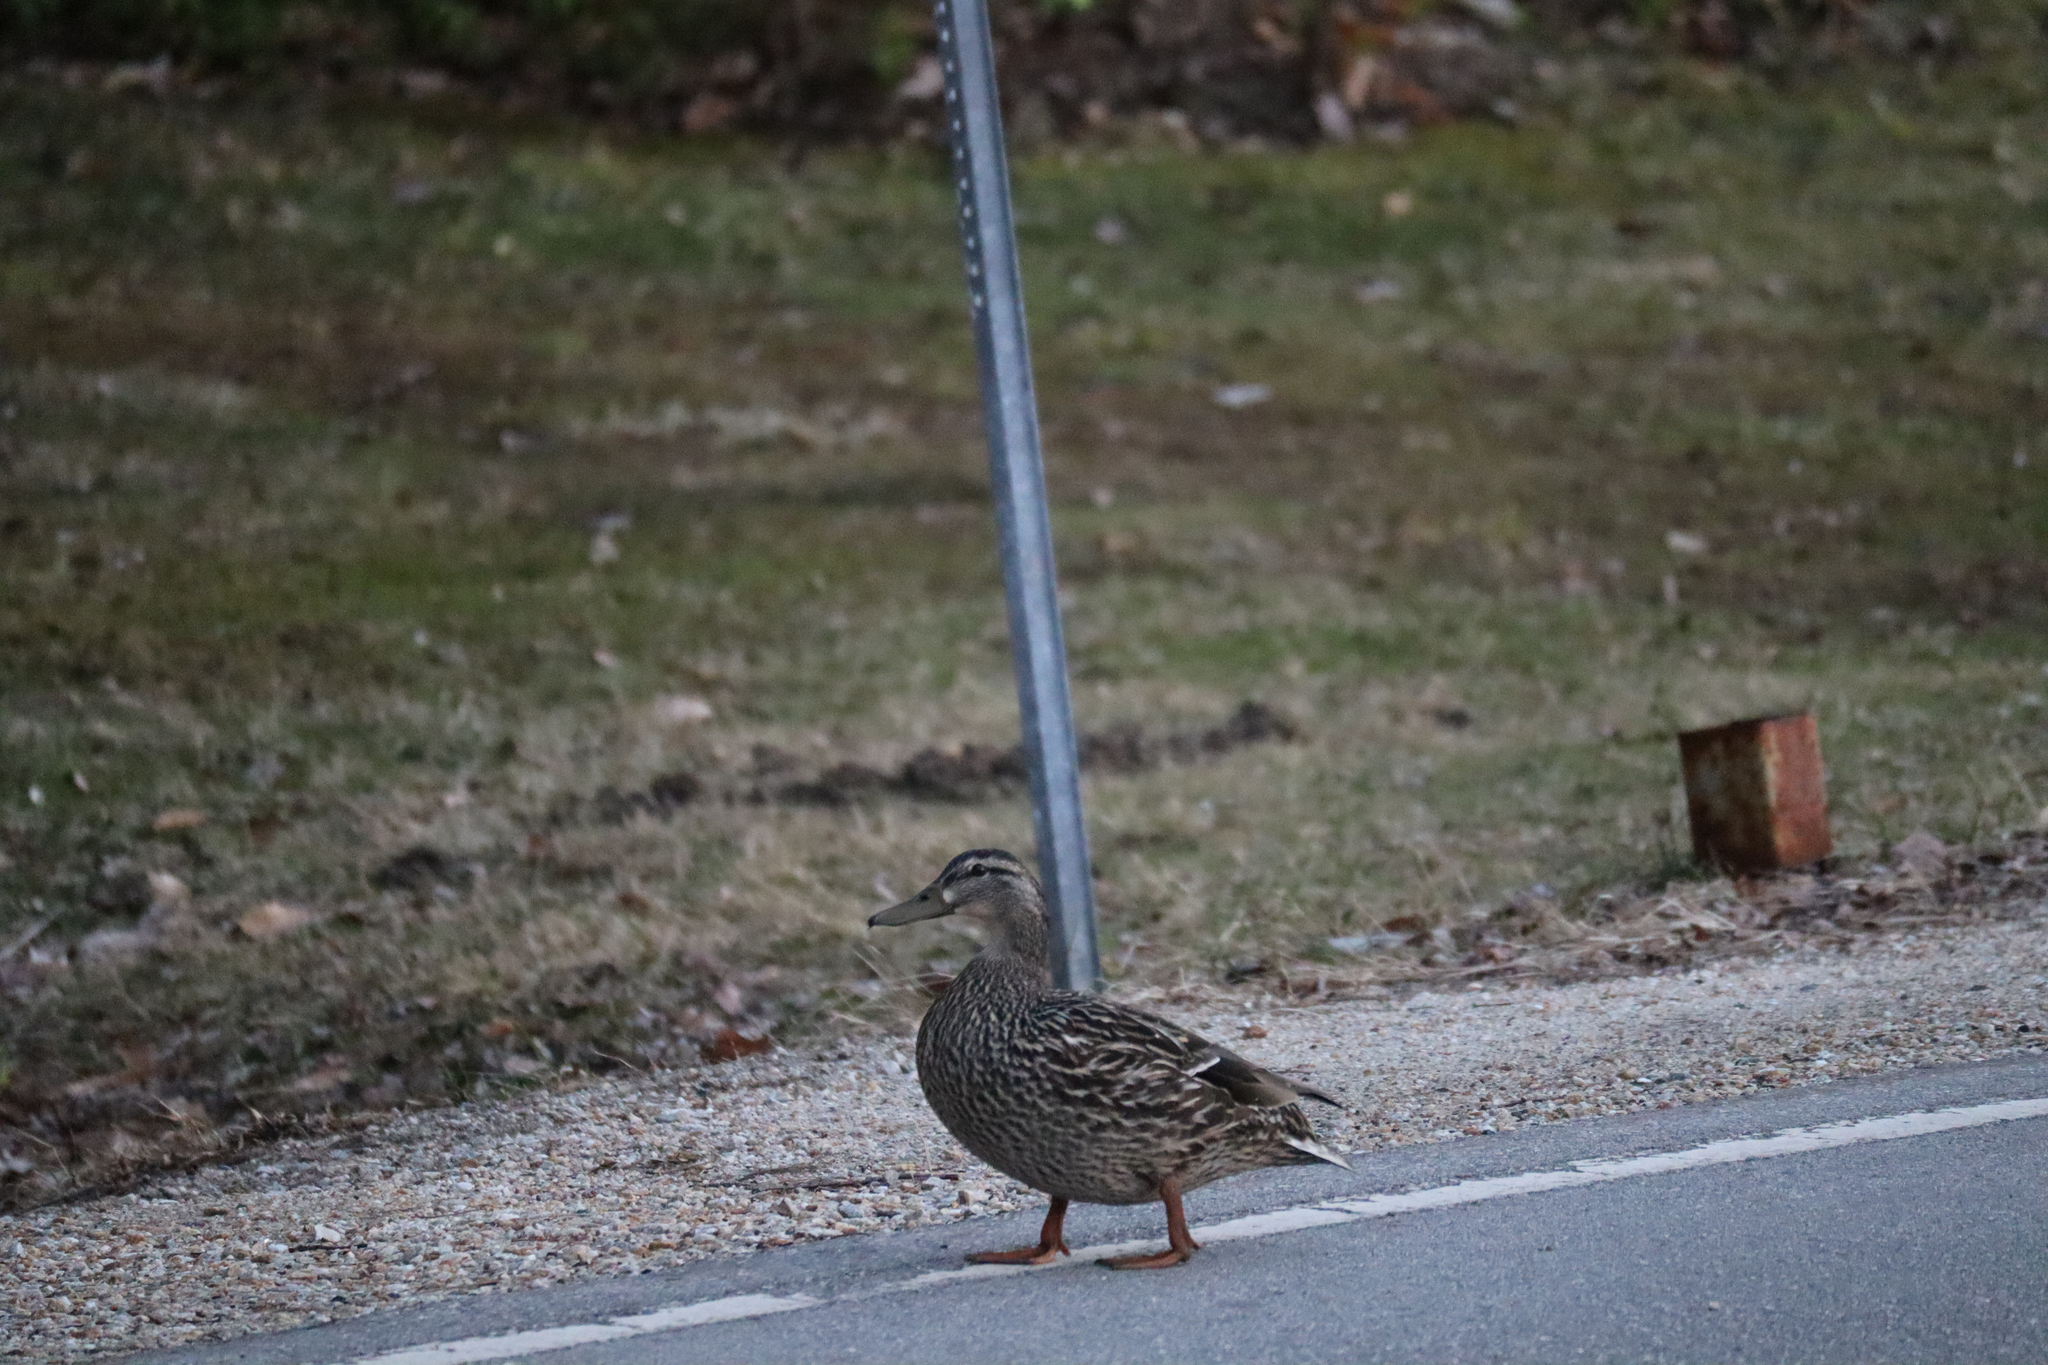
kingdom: Animalia
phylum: Chordata
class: Aves
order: Anseriformes
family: Anatidae
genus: Anas
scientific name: Anas platyrhynchos
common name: Mallard
